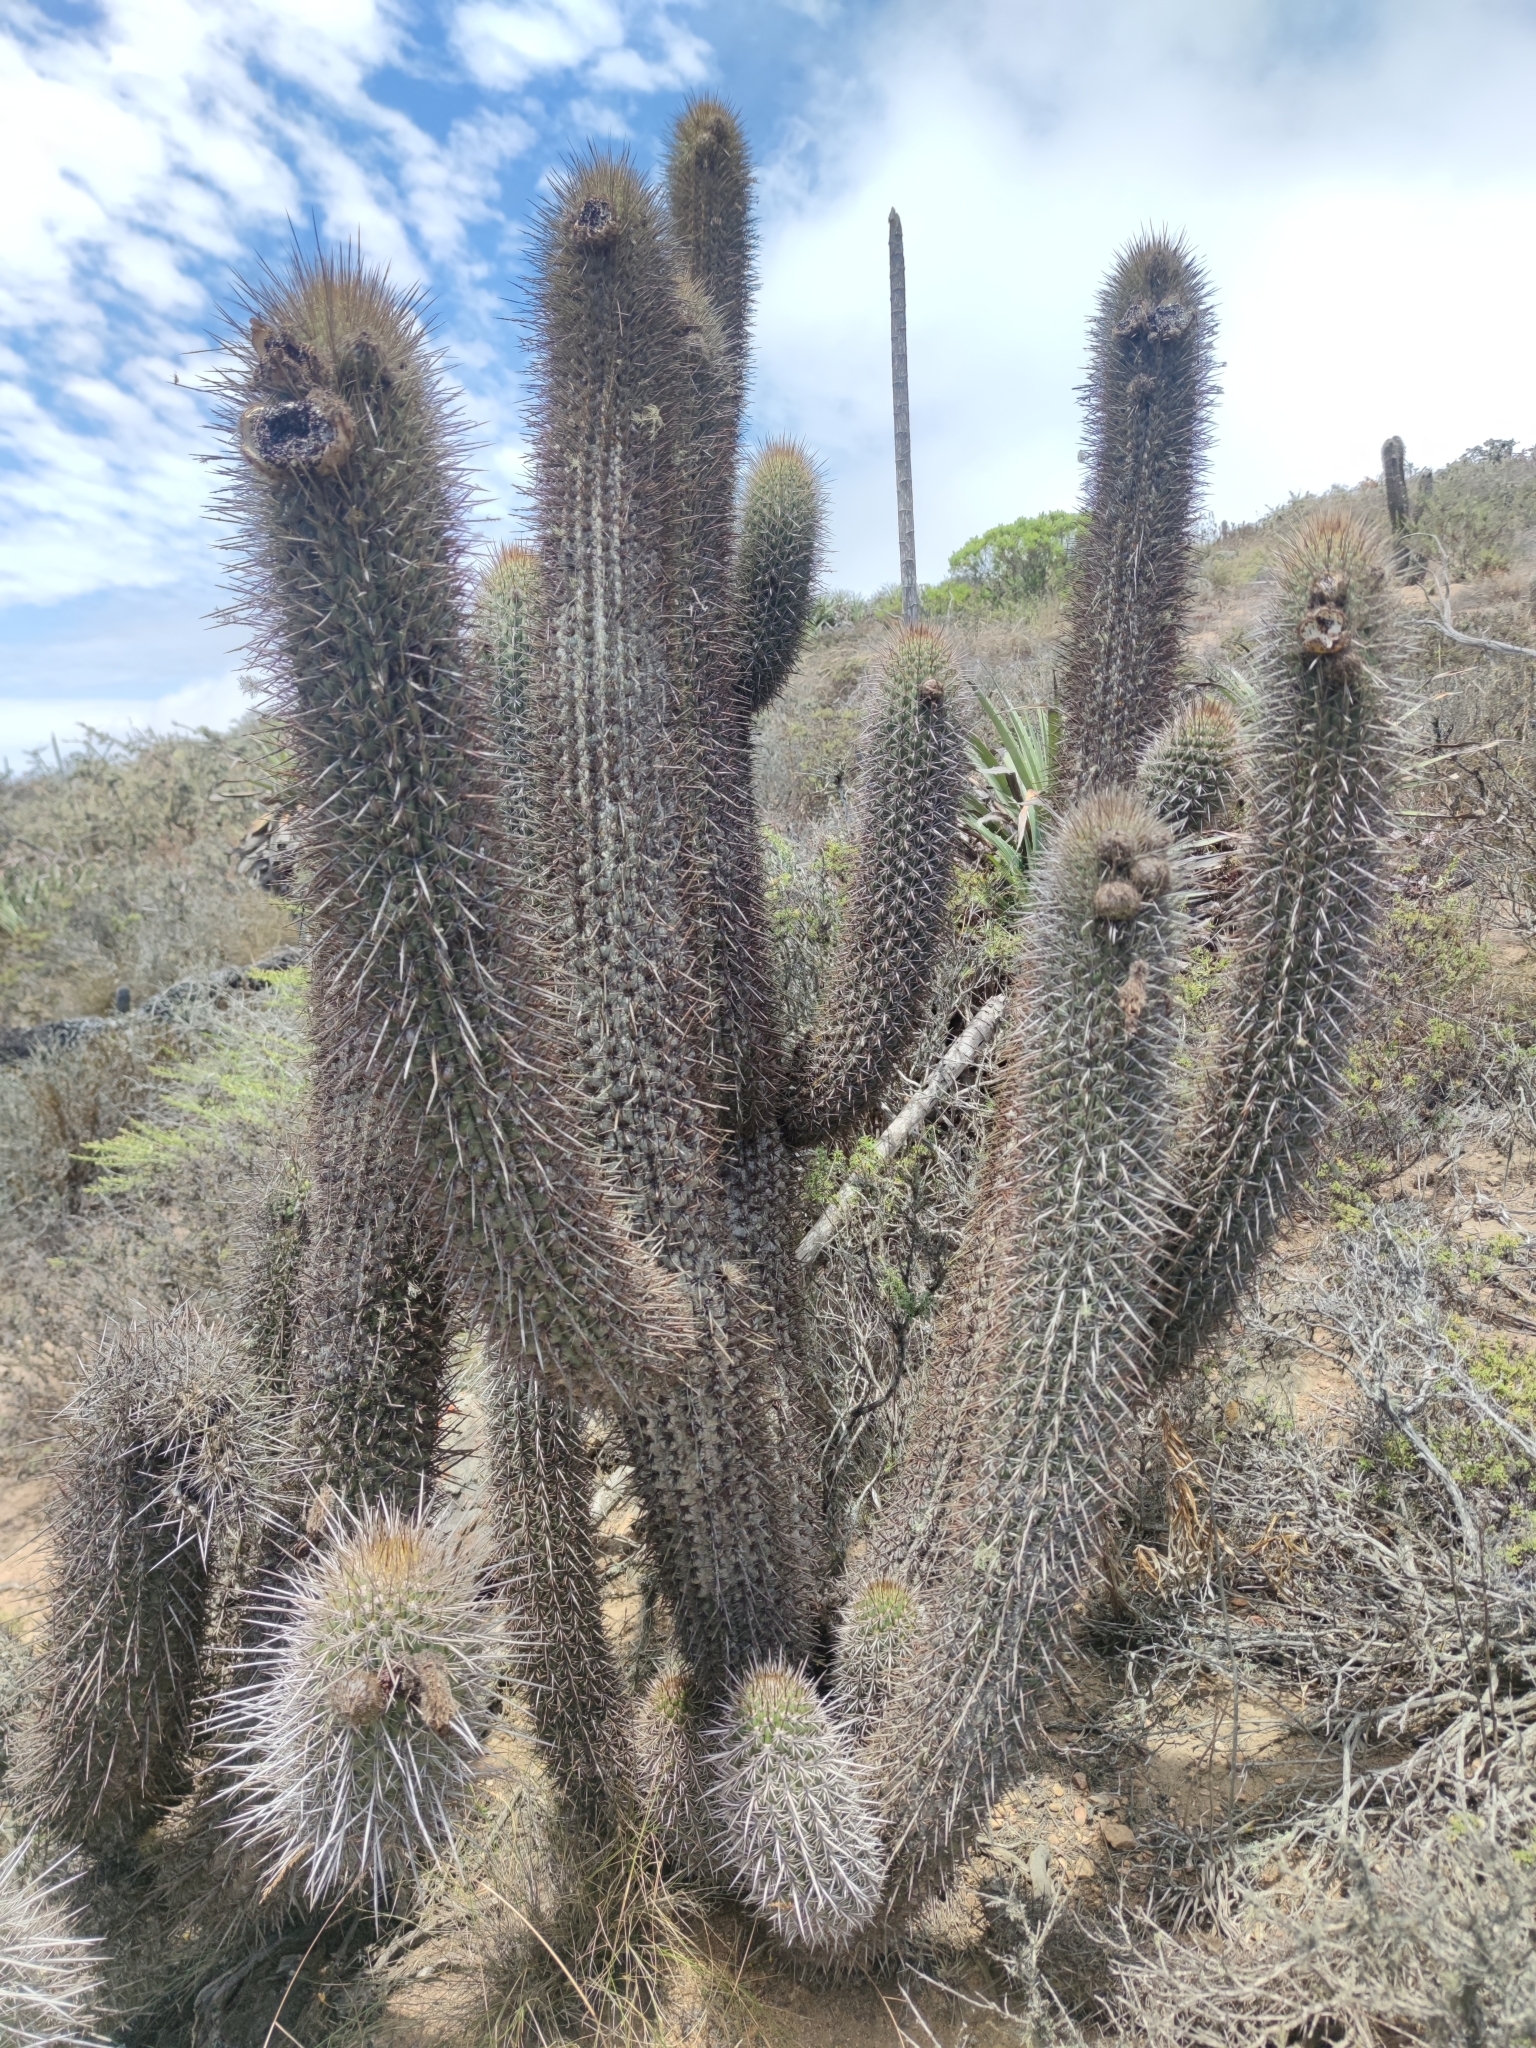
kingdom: Plantae
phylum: Tracheophyta
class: Magnoliopsida
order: Caryophyllales
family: Cactaceae
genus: Leucostele
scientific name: Leucostele chiloensis
